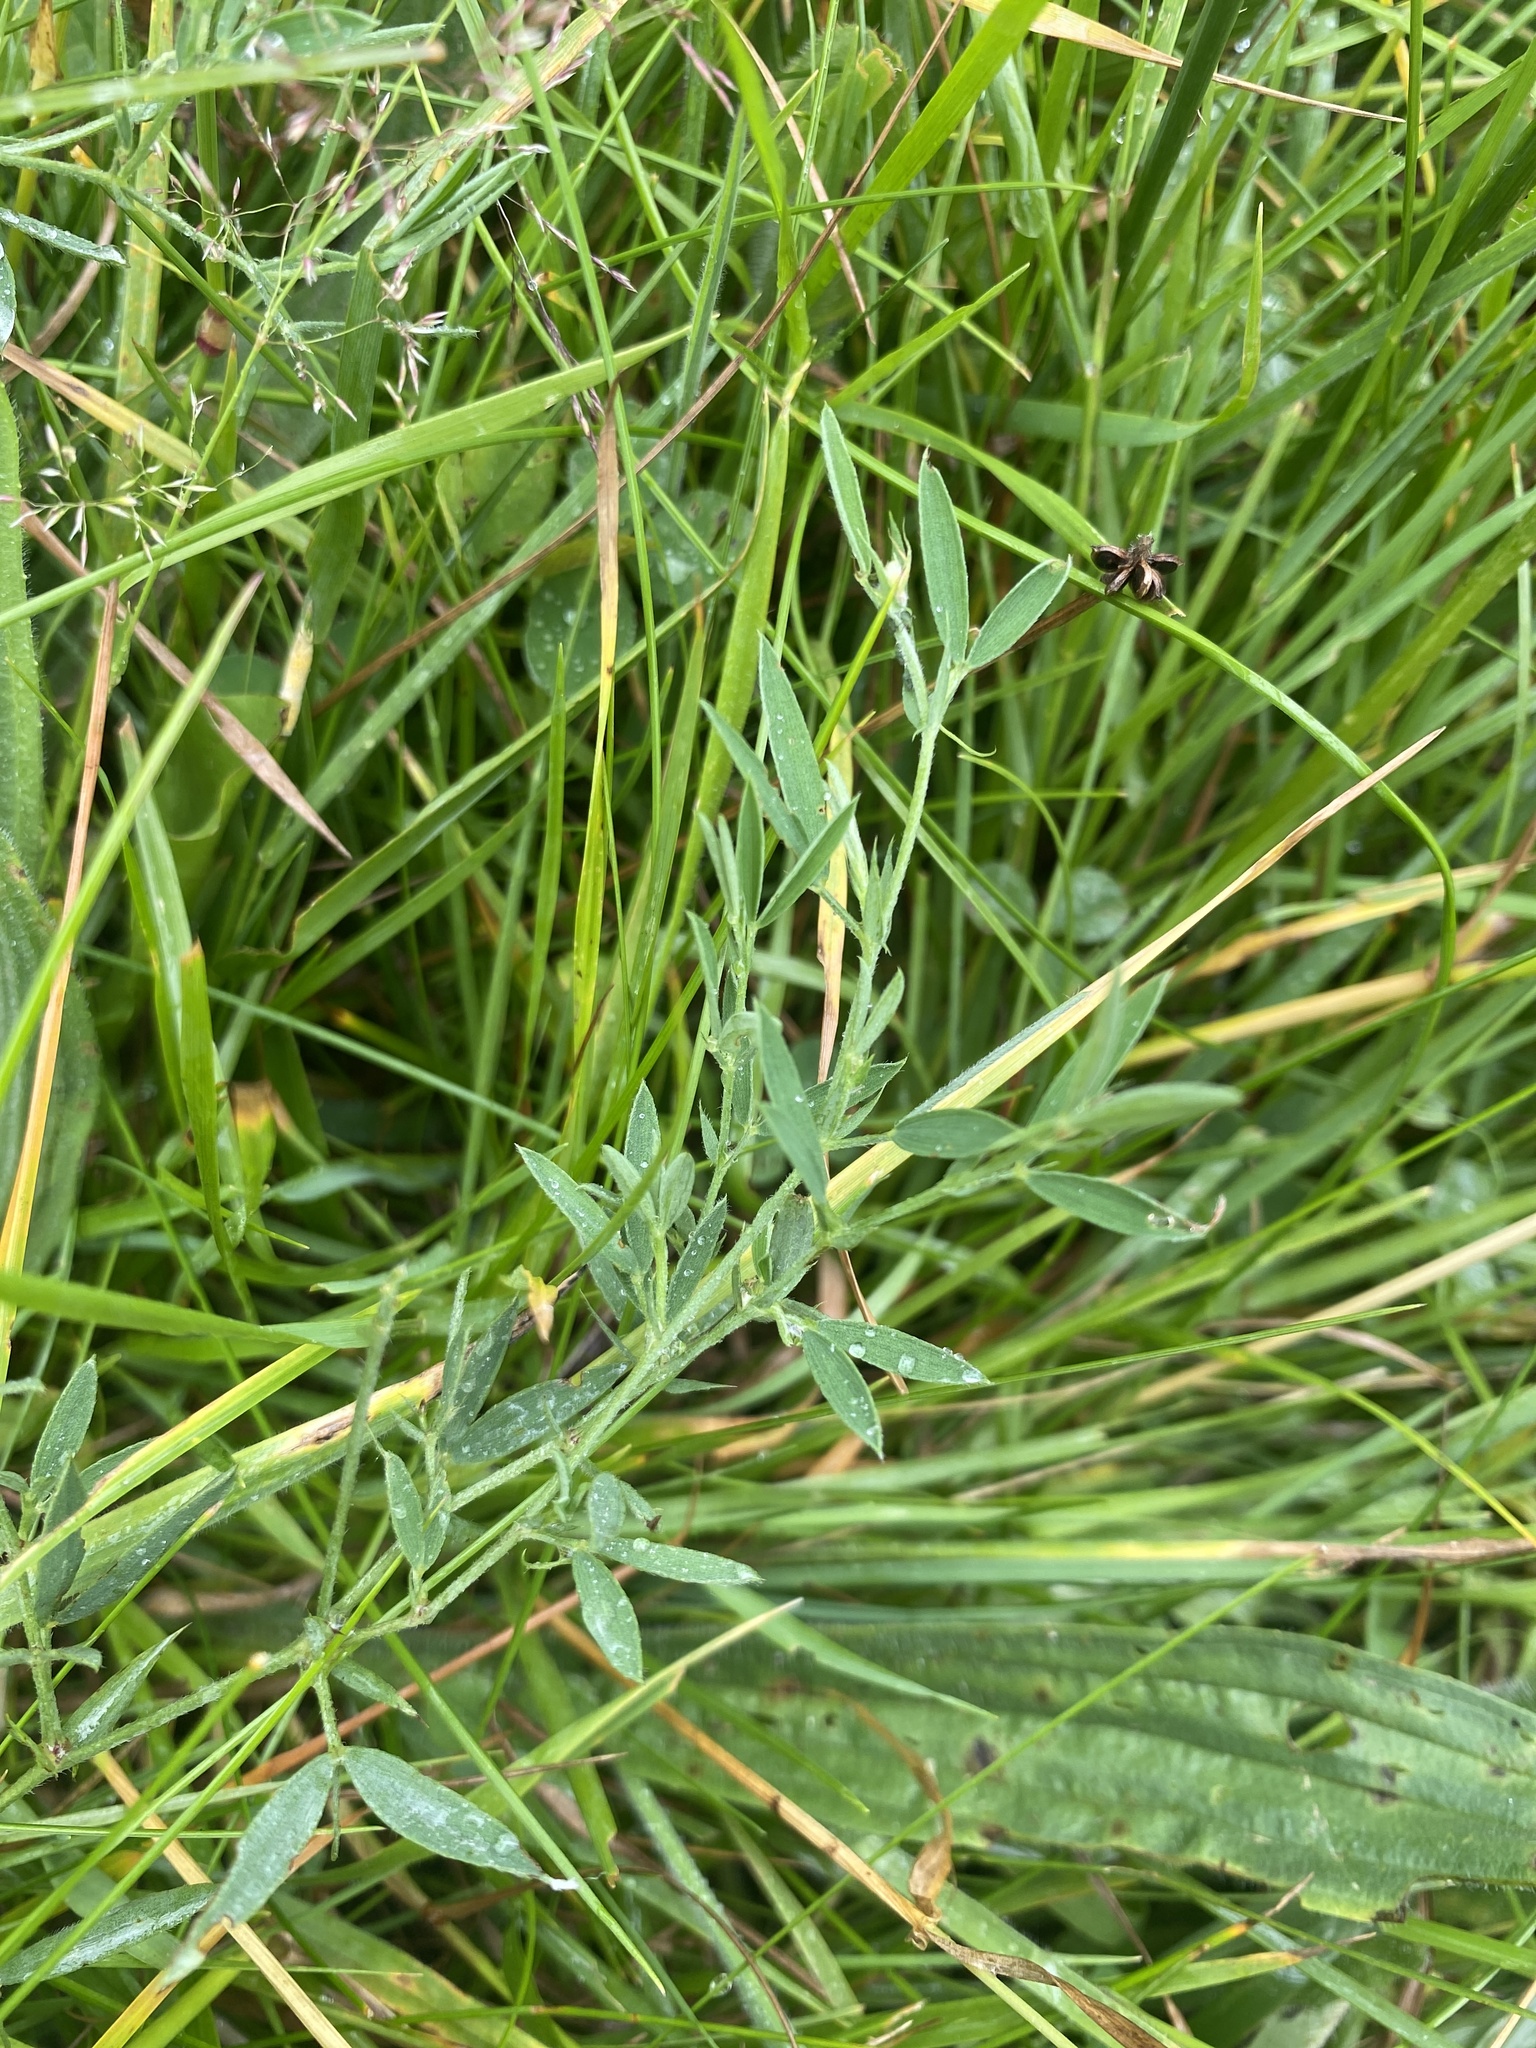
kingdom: Plantae
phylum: Tracheophyta
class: Magnoliopsida
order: Fabales
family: Fabaceae
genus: Lathyrus
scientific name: Lathyrus pratensis
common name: Meadow vetchling
